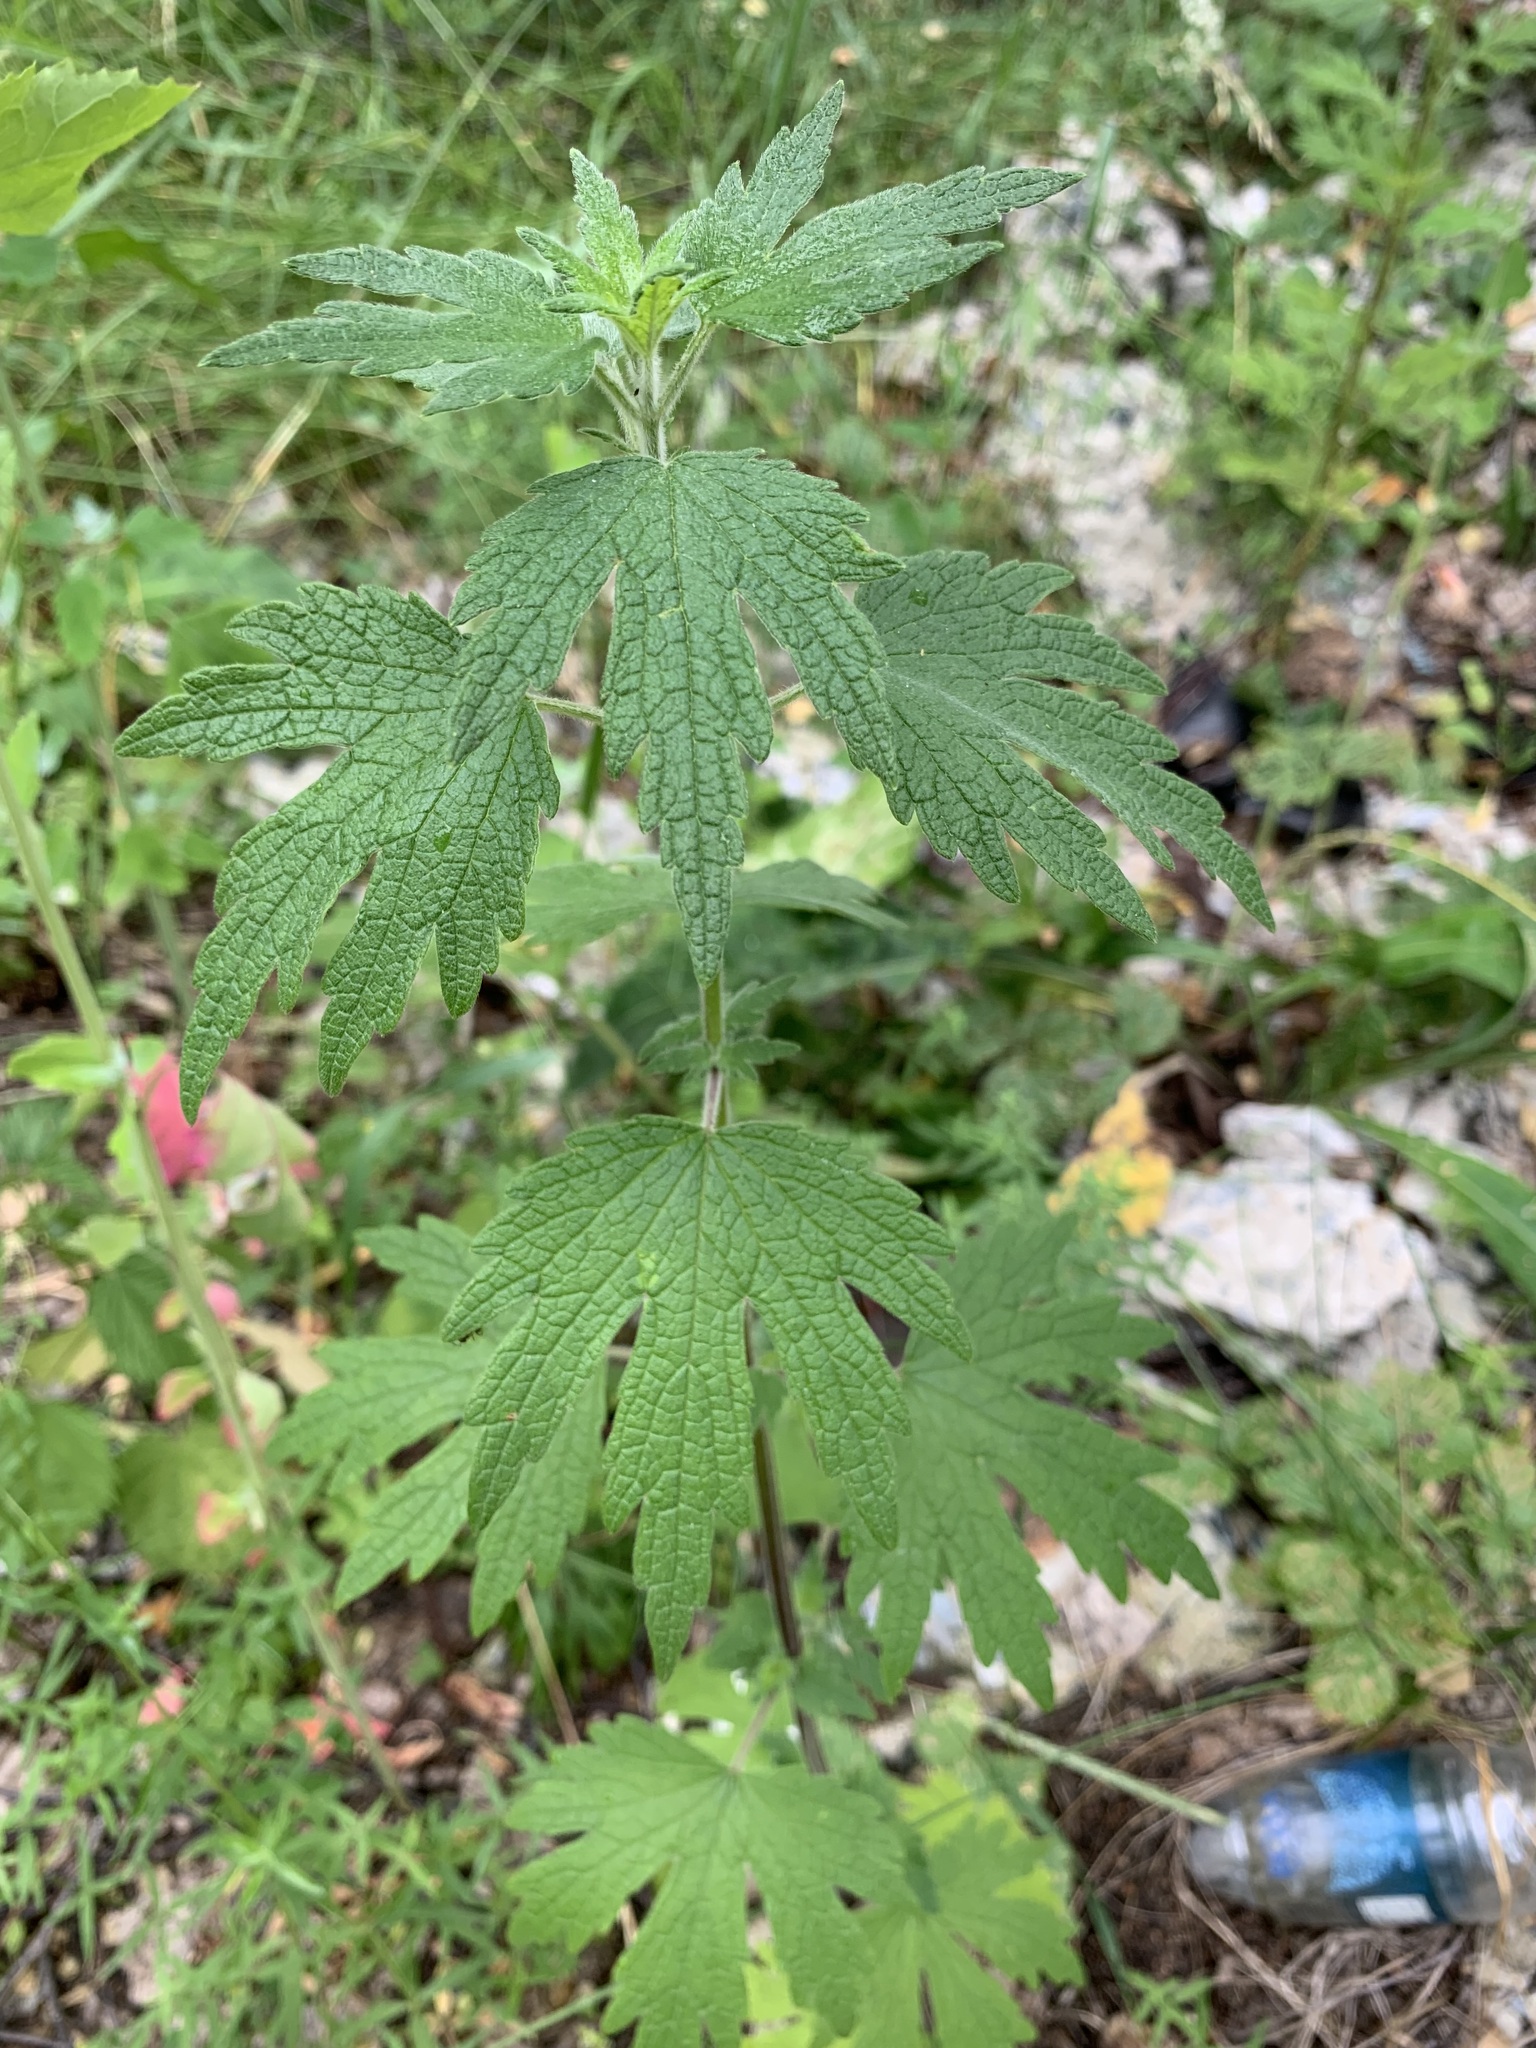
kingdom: Plantae
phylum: Tracheophyta
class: Magnoliopsida
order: Lamiales
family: Lamiaceae
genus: Leonurus
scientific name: Leonurus quinquelobatus
